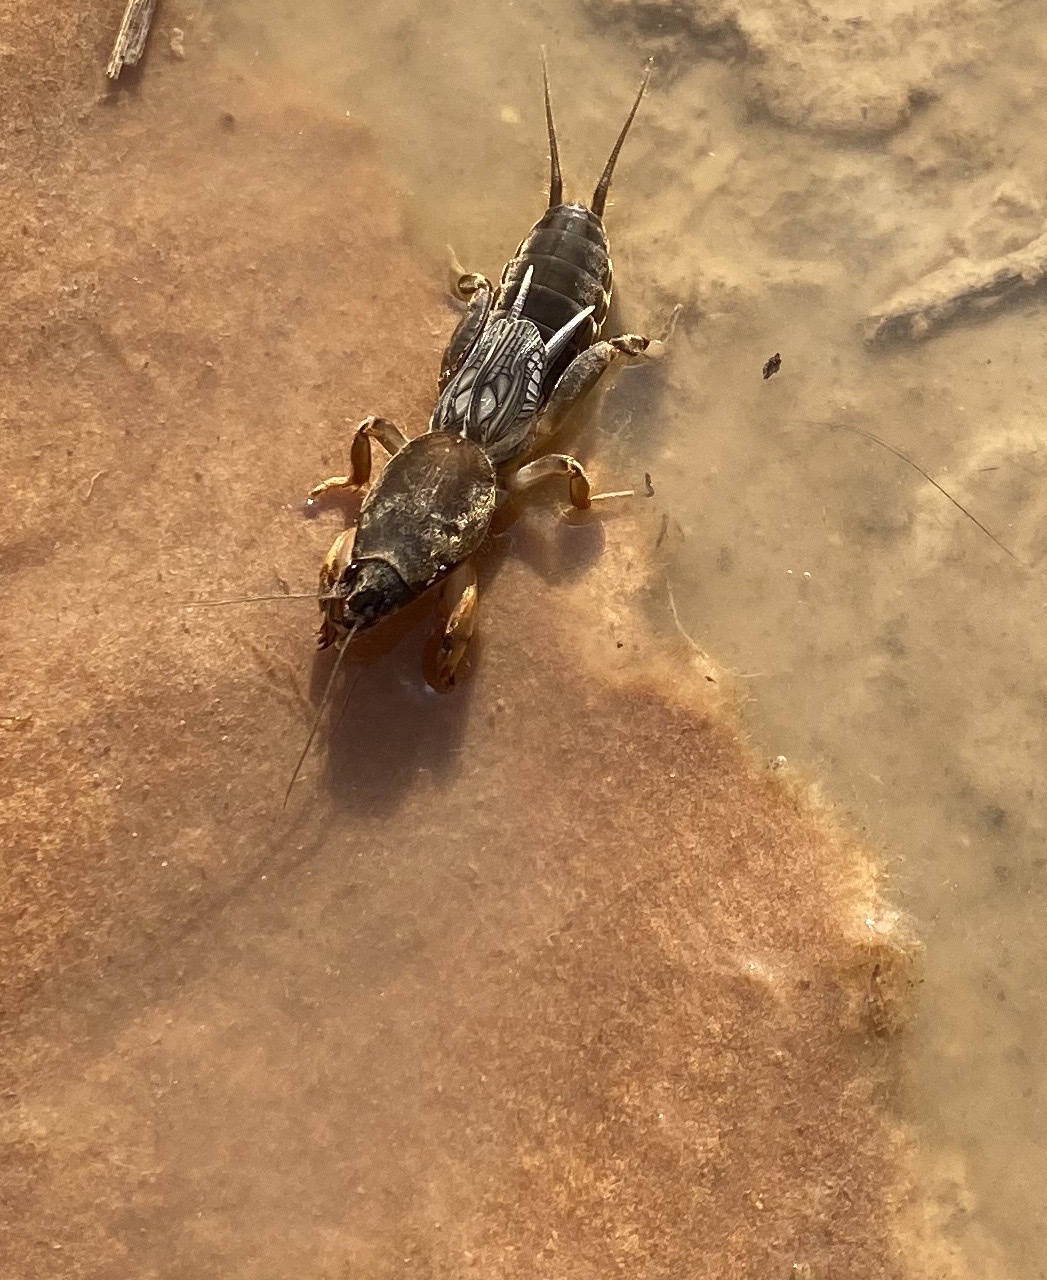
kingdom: Animalia
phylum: Arthropoda
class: Insecta
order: Orthoptera
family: Gryllotalpidae
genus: Neocurtilla
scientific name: Neocurtilla hexadactyla
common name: Northern mole cricket
